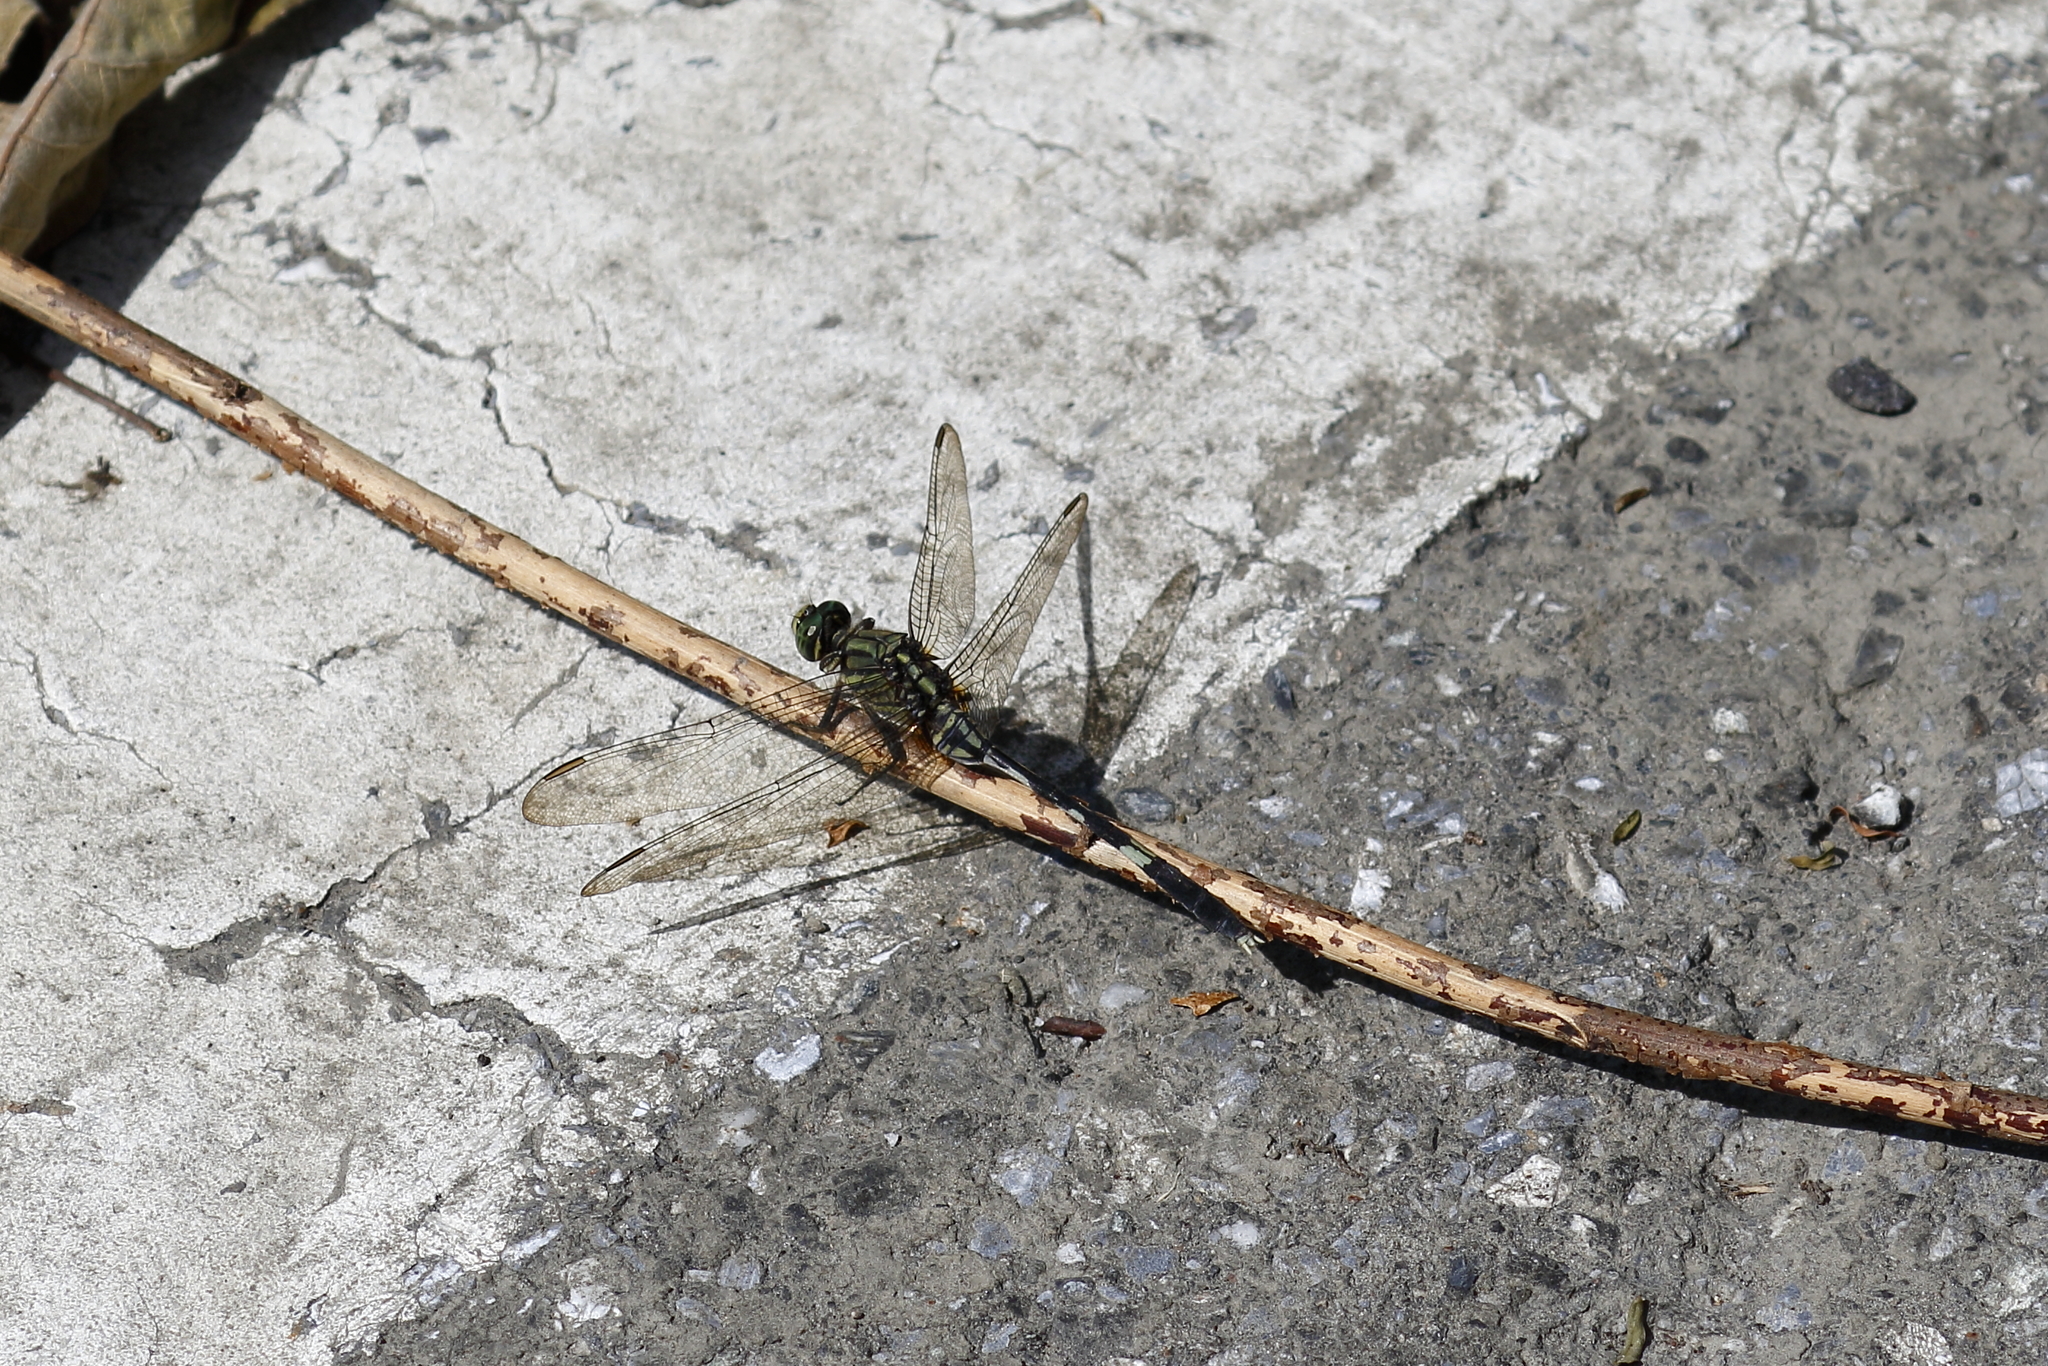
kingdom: Animalia
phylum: Arthropoda
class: Insecta
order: Odonata
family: Libellulidae
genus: Orthetrum
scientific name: Orthetrum sabina
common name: Slender skimmer
